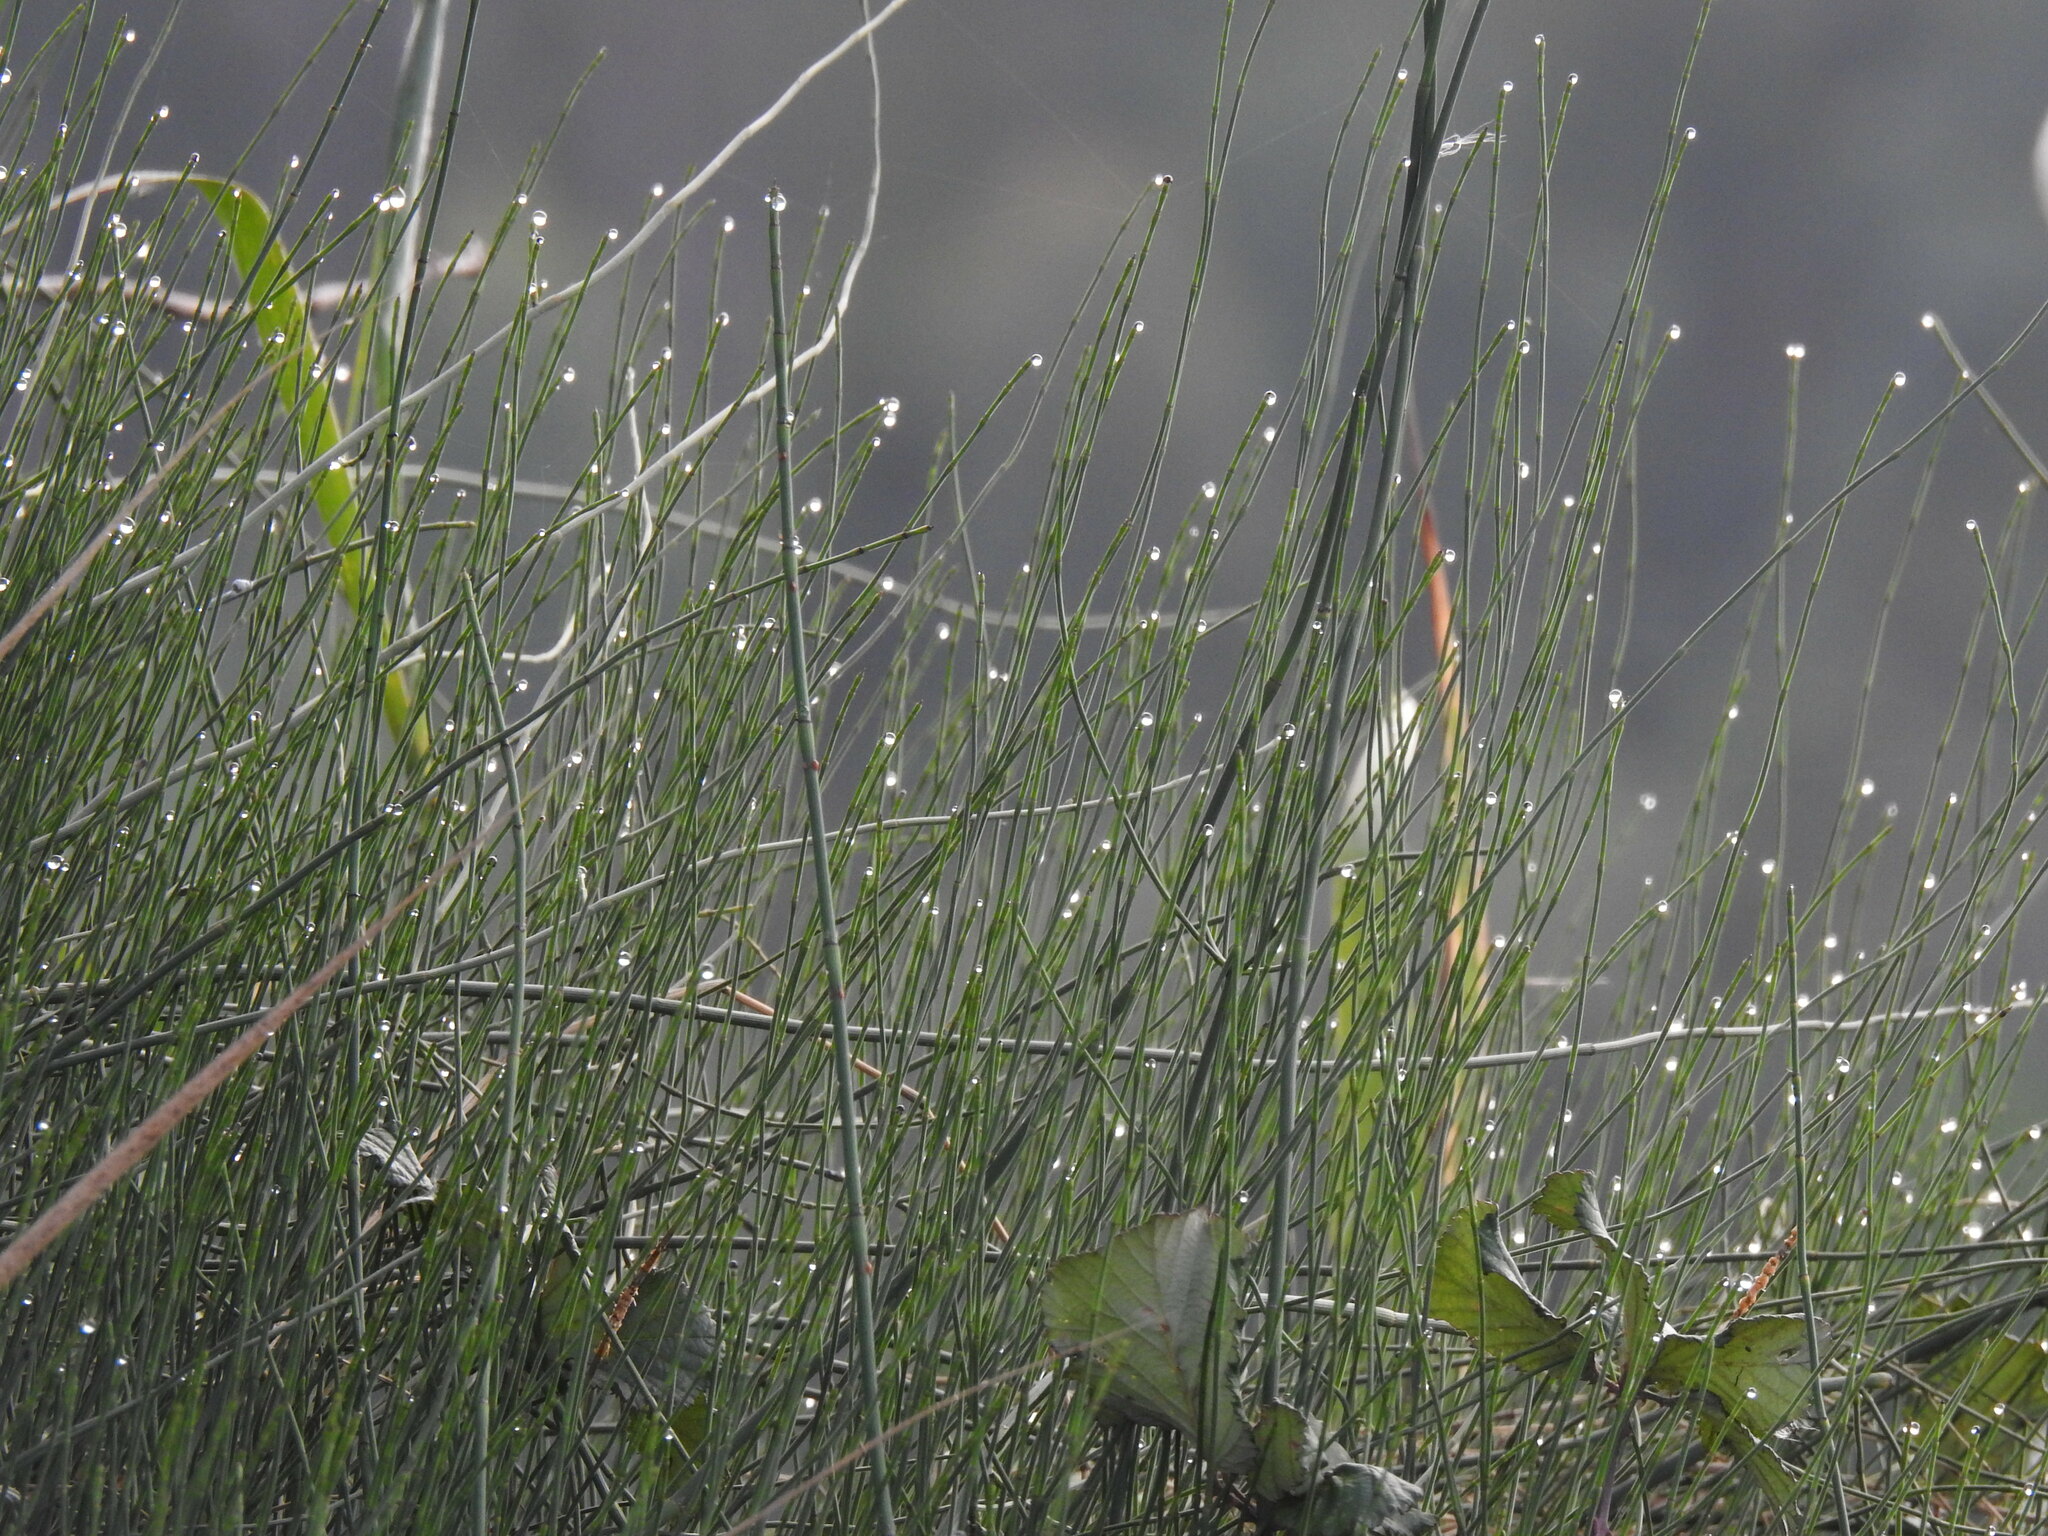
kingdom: Plantae
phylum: Tracheophyta
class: Polypodiopsida
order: Equisetales
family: Equisetaceae
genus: Equisetum
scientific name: Equisetum ramosissimum
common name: Branched horsetail
